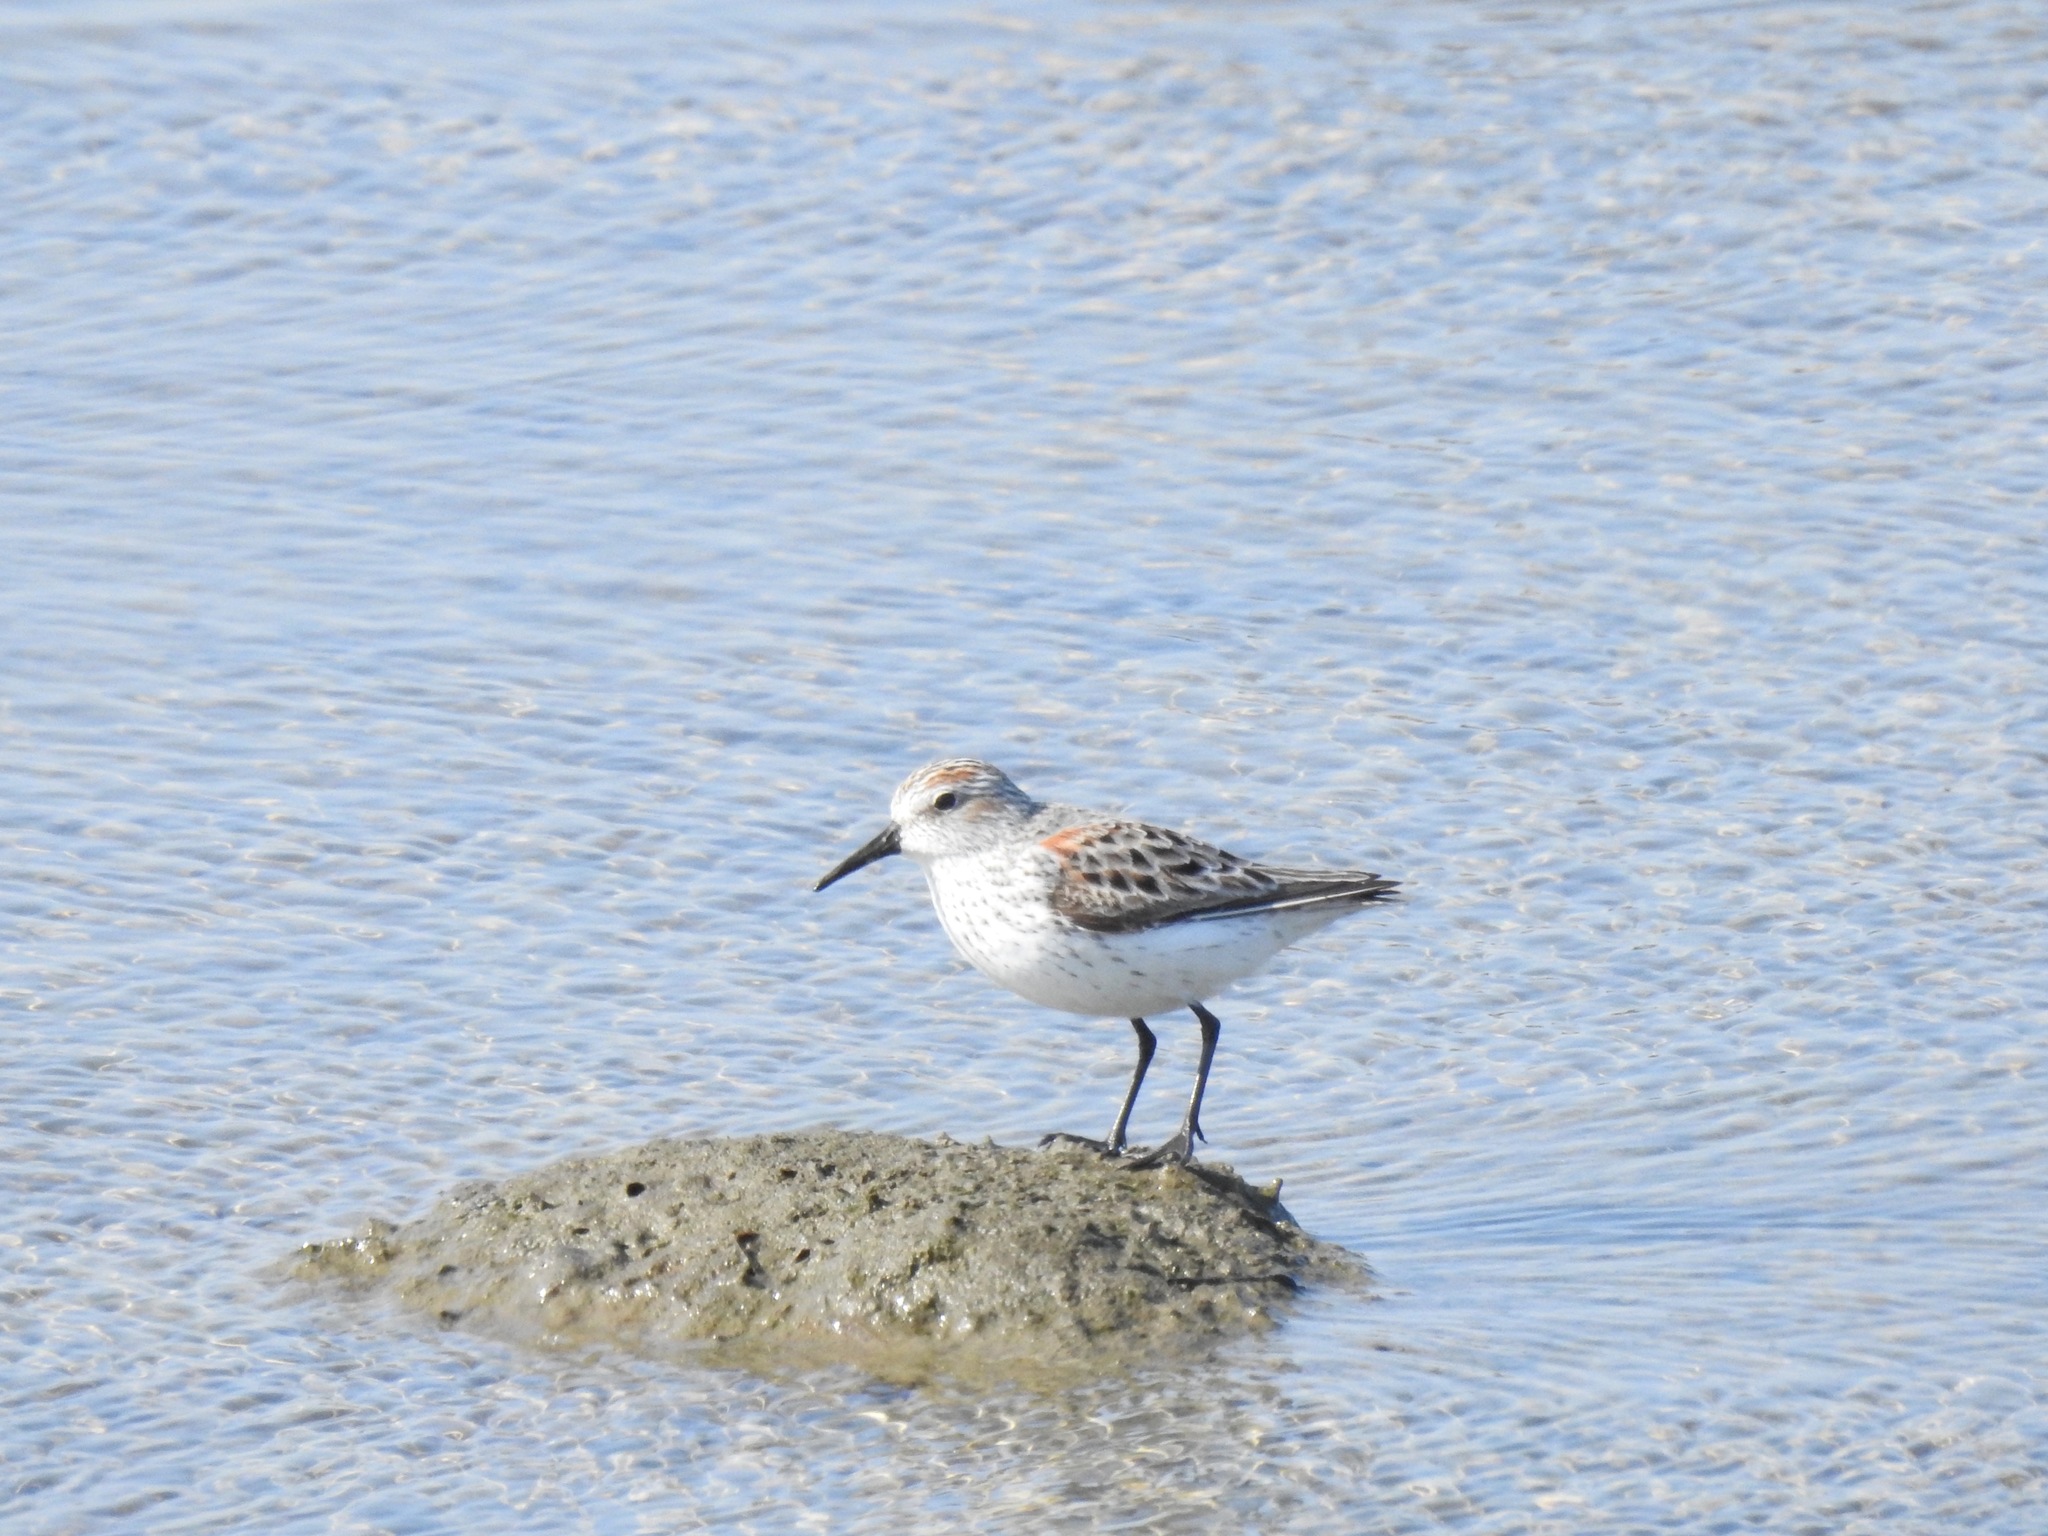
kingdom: Animalia
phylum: Chordata
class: Aves
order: Charadriiformes
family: Scolopacidae
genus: Calidris
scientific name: Calidris mauri
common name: Western sandpiper
